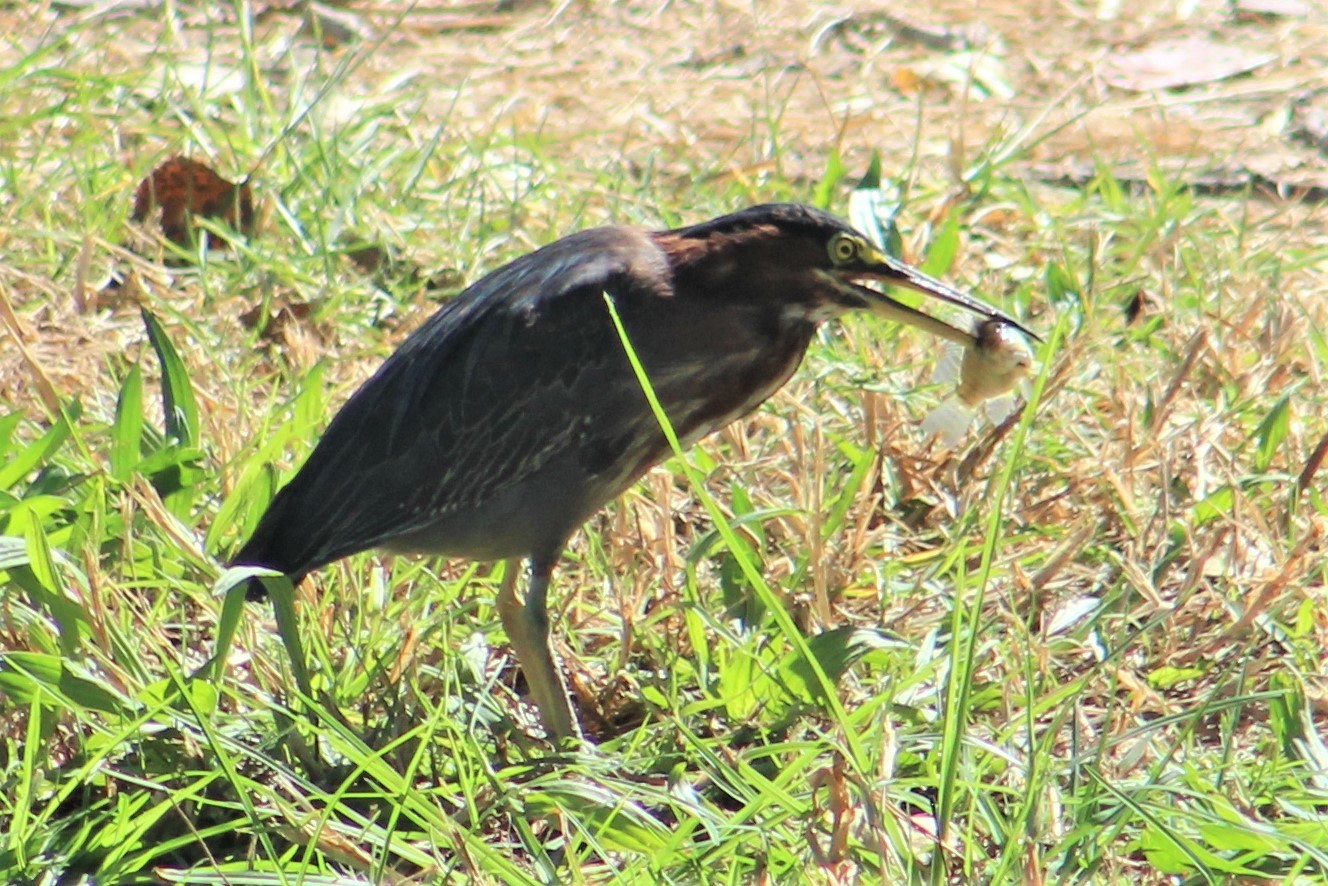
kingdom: Animalia
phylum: Chordata
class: Aves
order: Pelecaniformes
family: Ardeidae
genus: Butorides
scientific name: Butorides virescens
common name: Green heron
